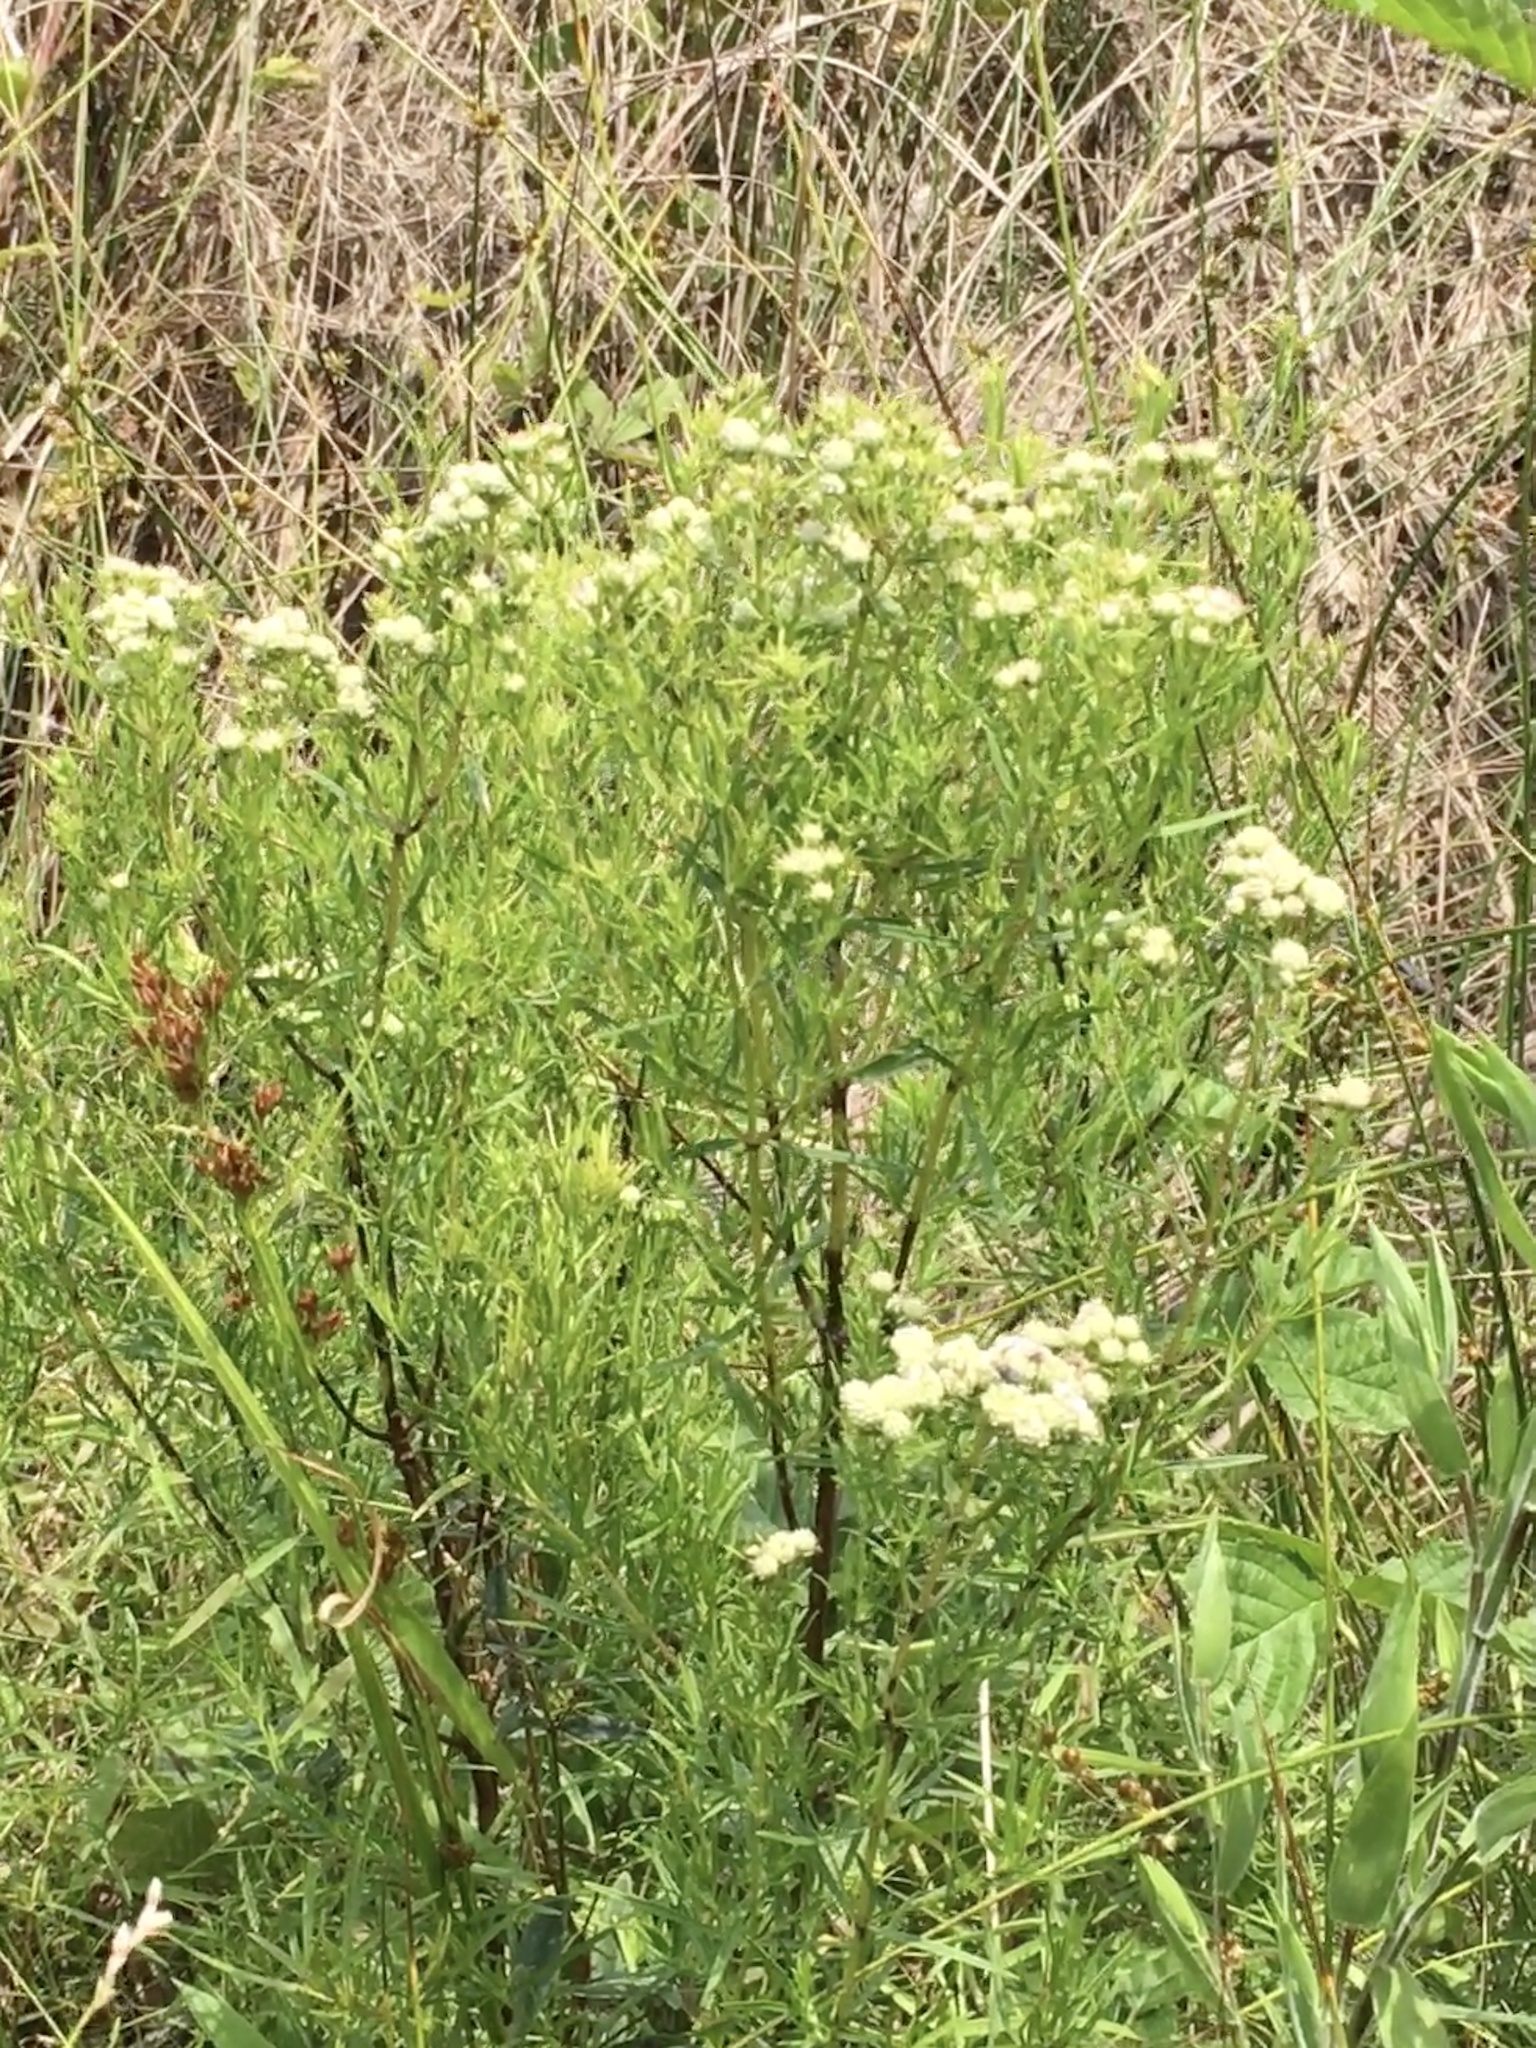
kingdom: Plantae
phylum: Tracheophyta
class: Magnoliopsida
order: Lamiales
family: Lamiaceae
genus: Pycnanthemum
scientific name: Pycnanthemum tenuifolium
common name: Narrow-leaf mountain-mint
